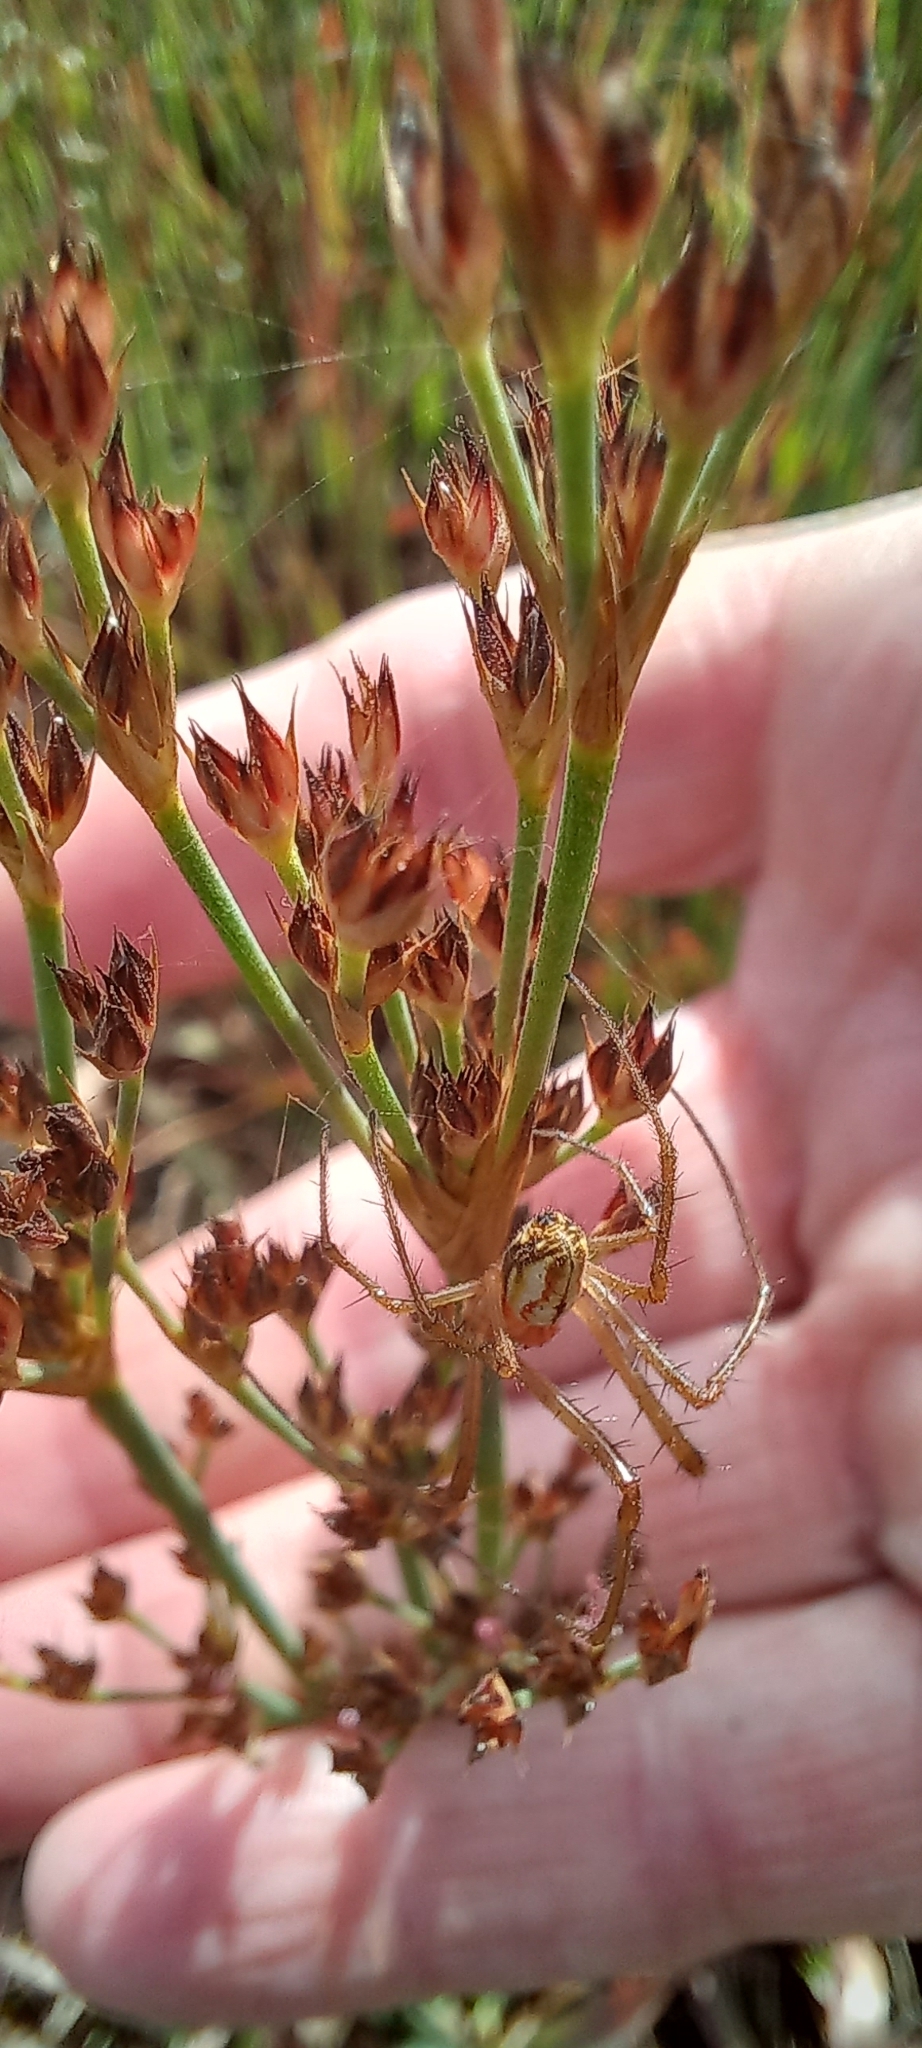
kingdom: Plantae
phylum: Tracheophyta
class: Liliopsida
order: Poales
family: Juncaceae
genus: Juncus
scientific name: Juncus lomatophyllus
